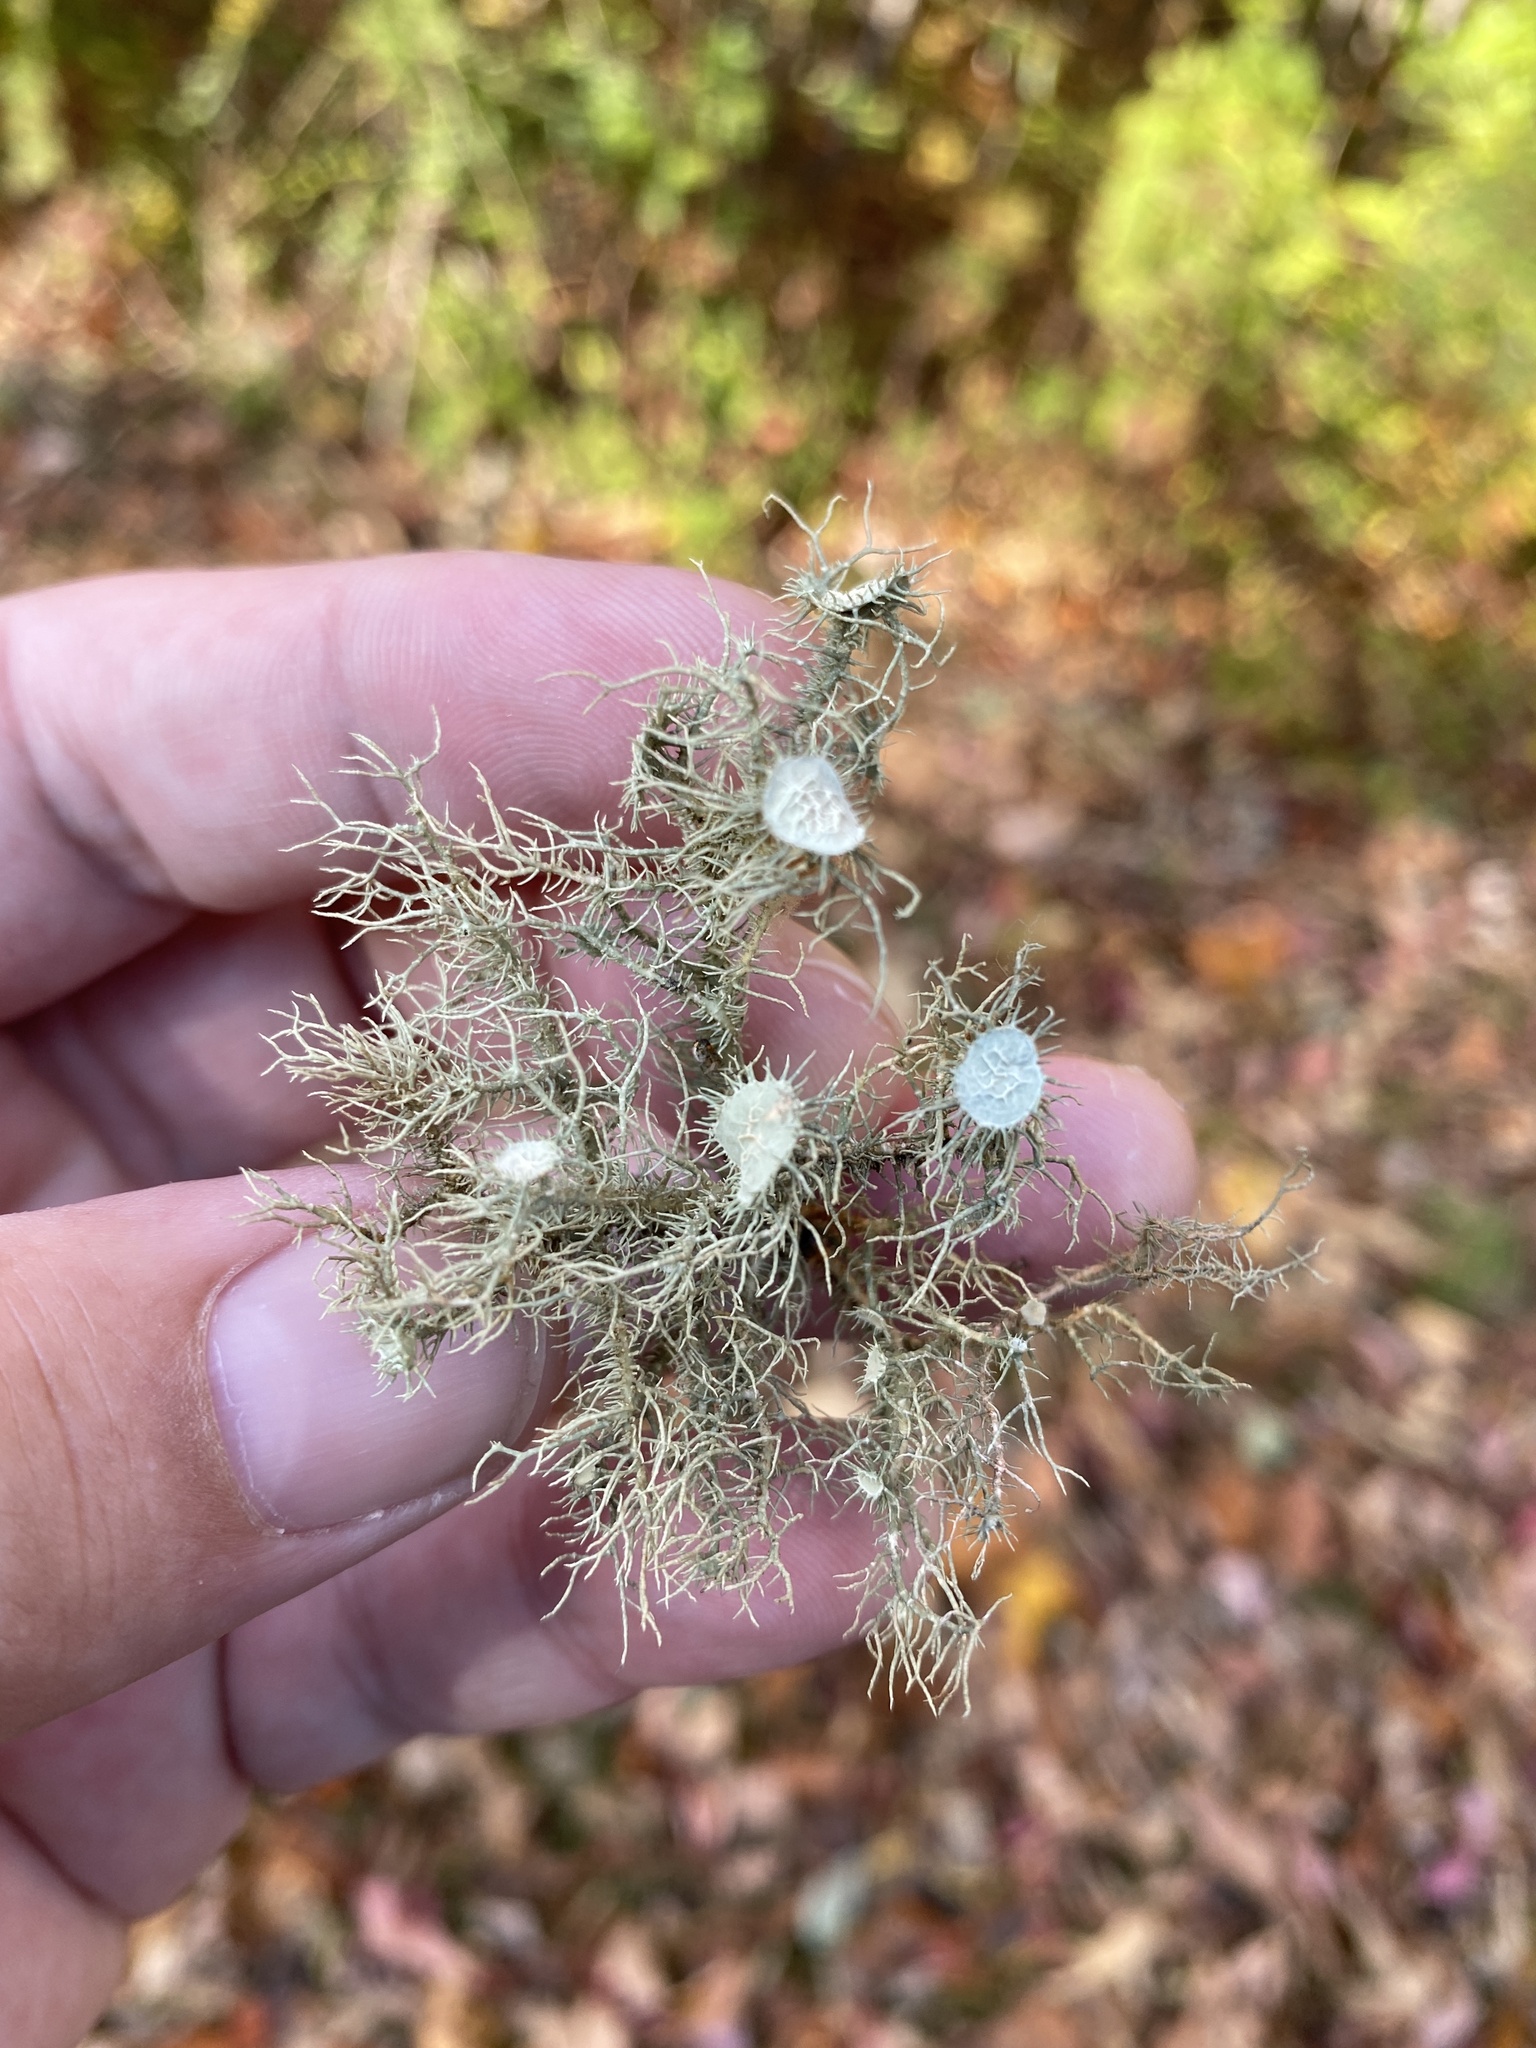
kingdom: Fungi
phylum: Ascomycota
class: Lecanoromycetes
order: Lecanorales
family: Parmeliaceae
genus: Usnea
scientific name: Usnea strigosa
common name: Bushy beard lichen
